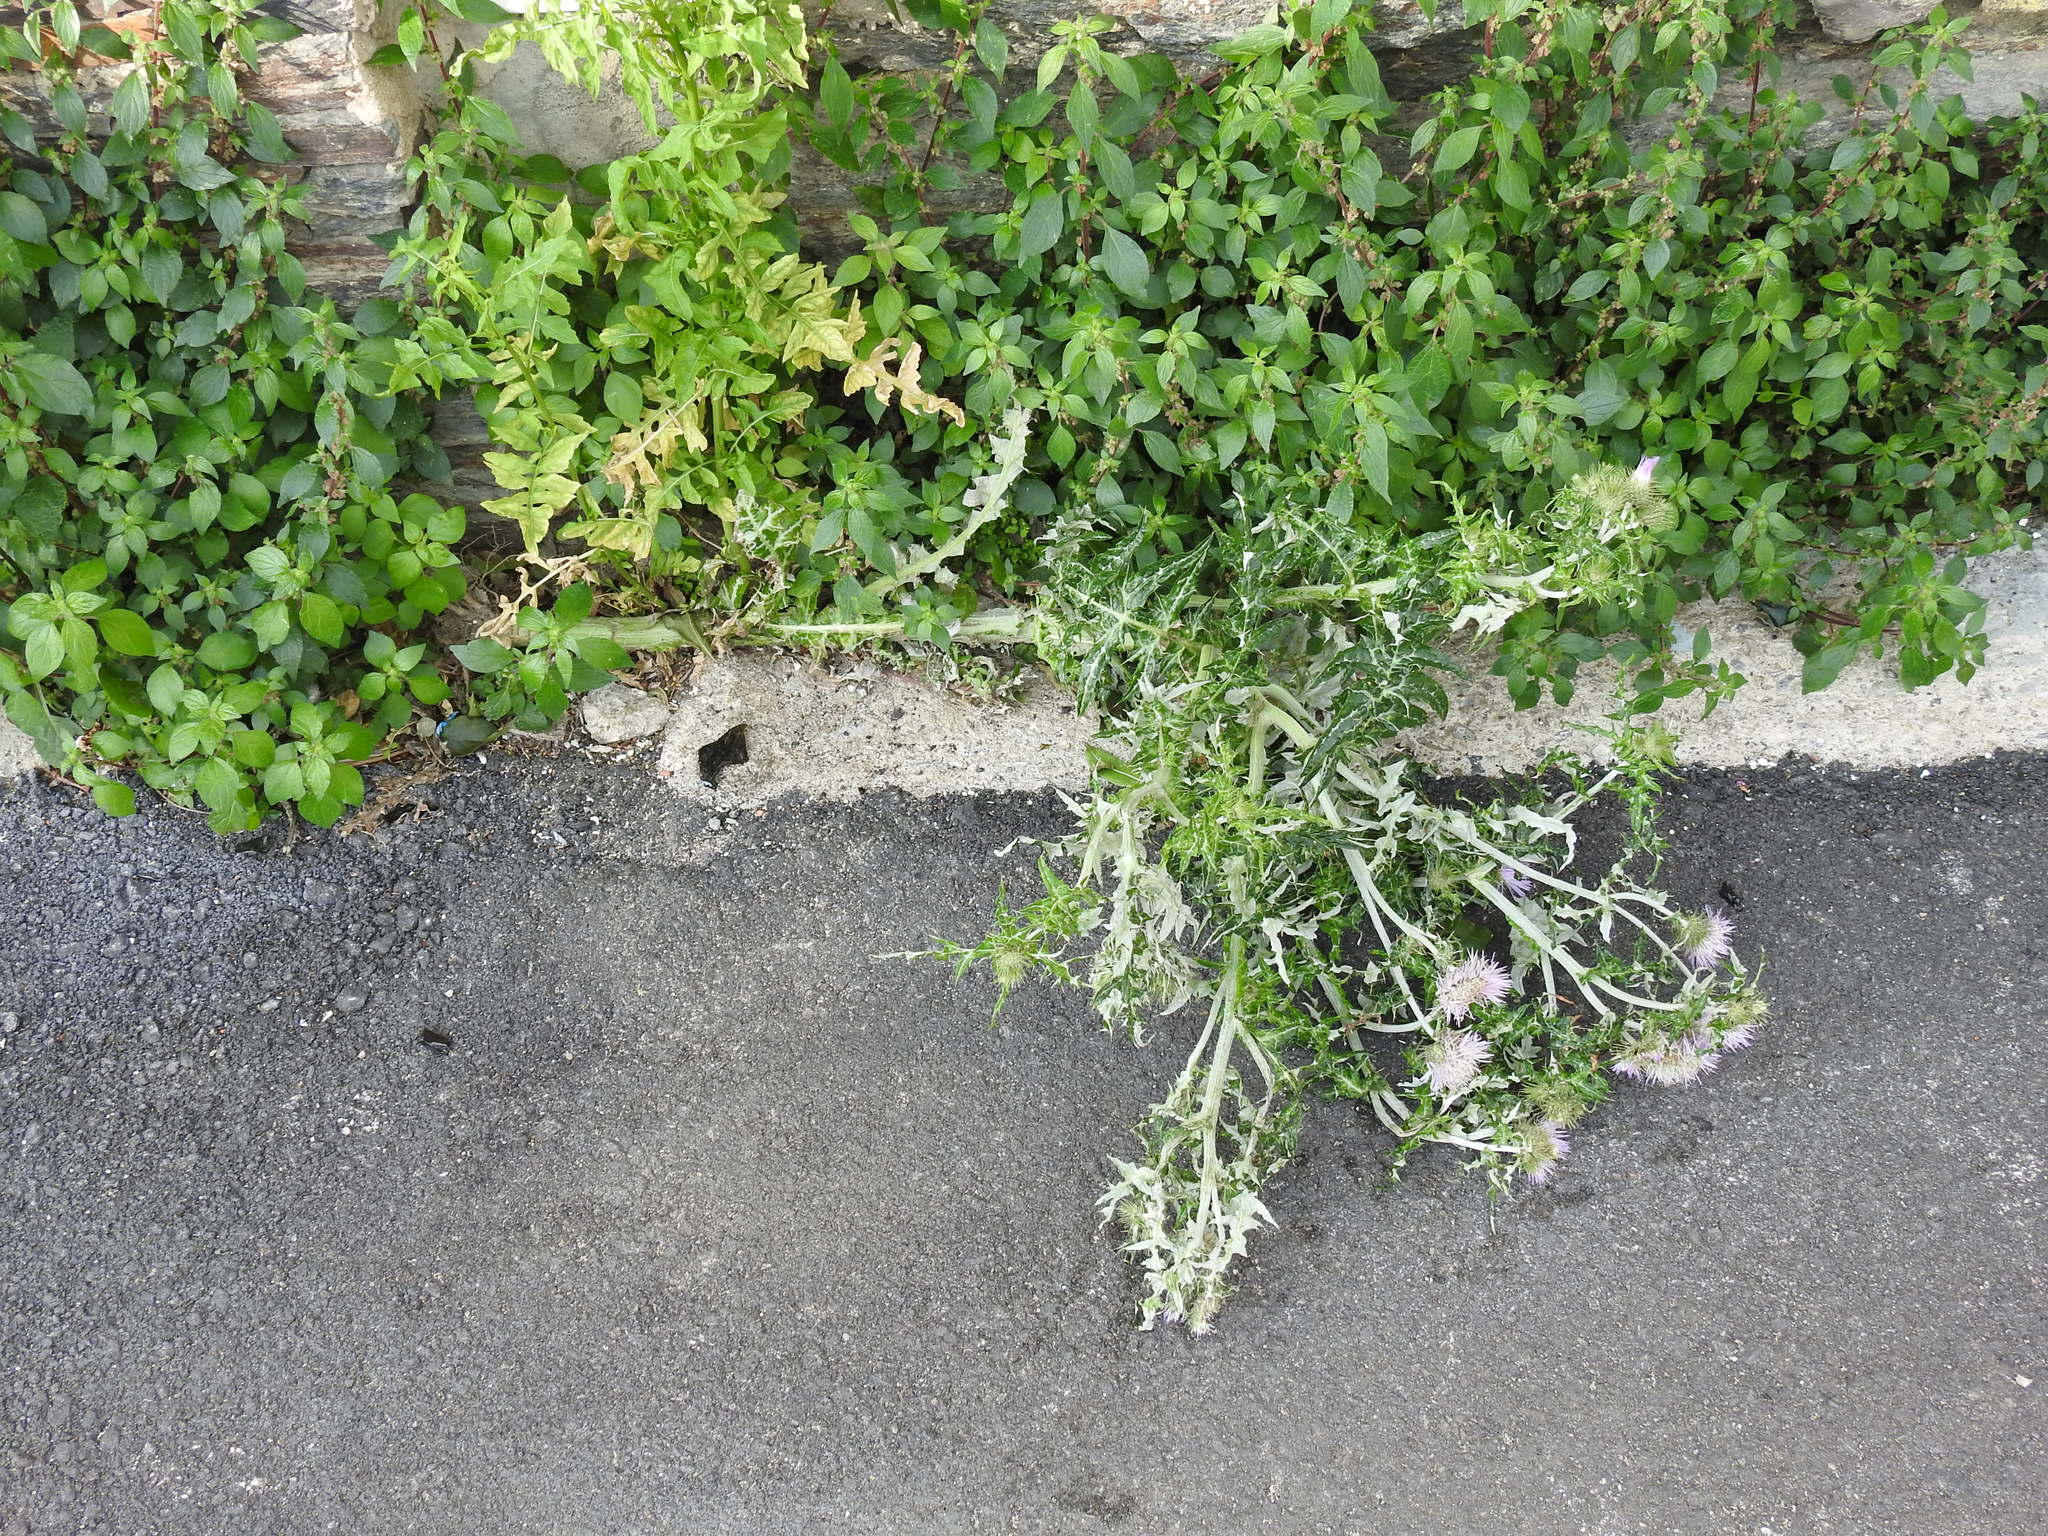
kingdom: Plantae
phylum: Tracheophyta
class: Magnoliopsida
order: Asterales
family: Asteraceae
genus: Galactites
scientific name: Galactites tomentosa
